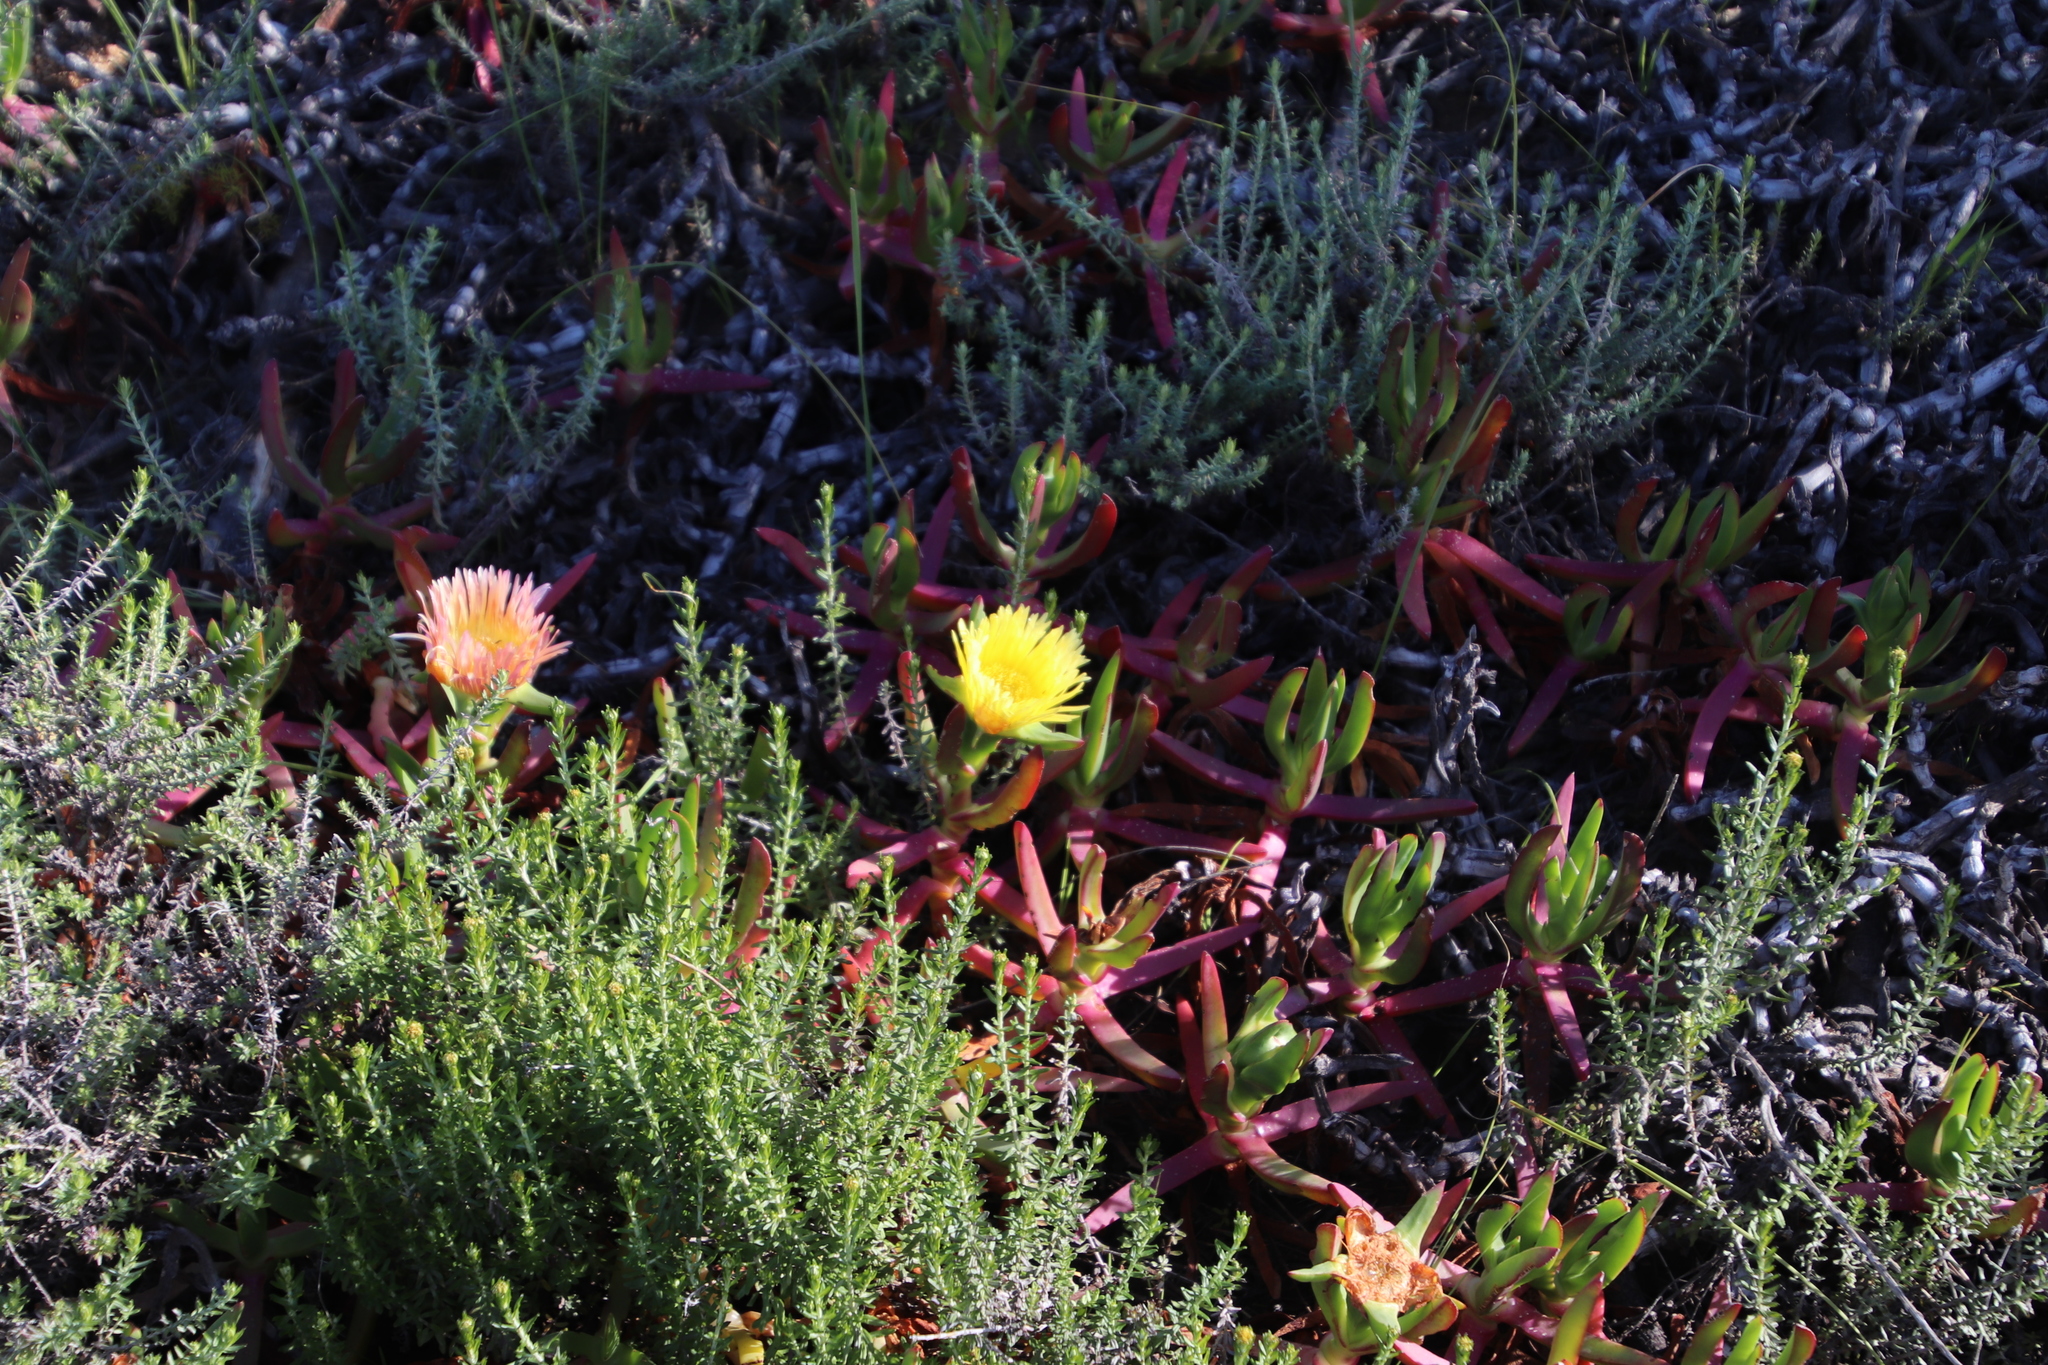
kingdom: Plantae
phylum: Tracheophyta
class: Magnoliopsida
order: Caryophyllales
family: Aizoaceae
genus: Carpobrotus
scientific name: Carpobrotus edulis
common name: Hottentot-fig
